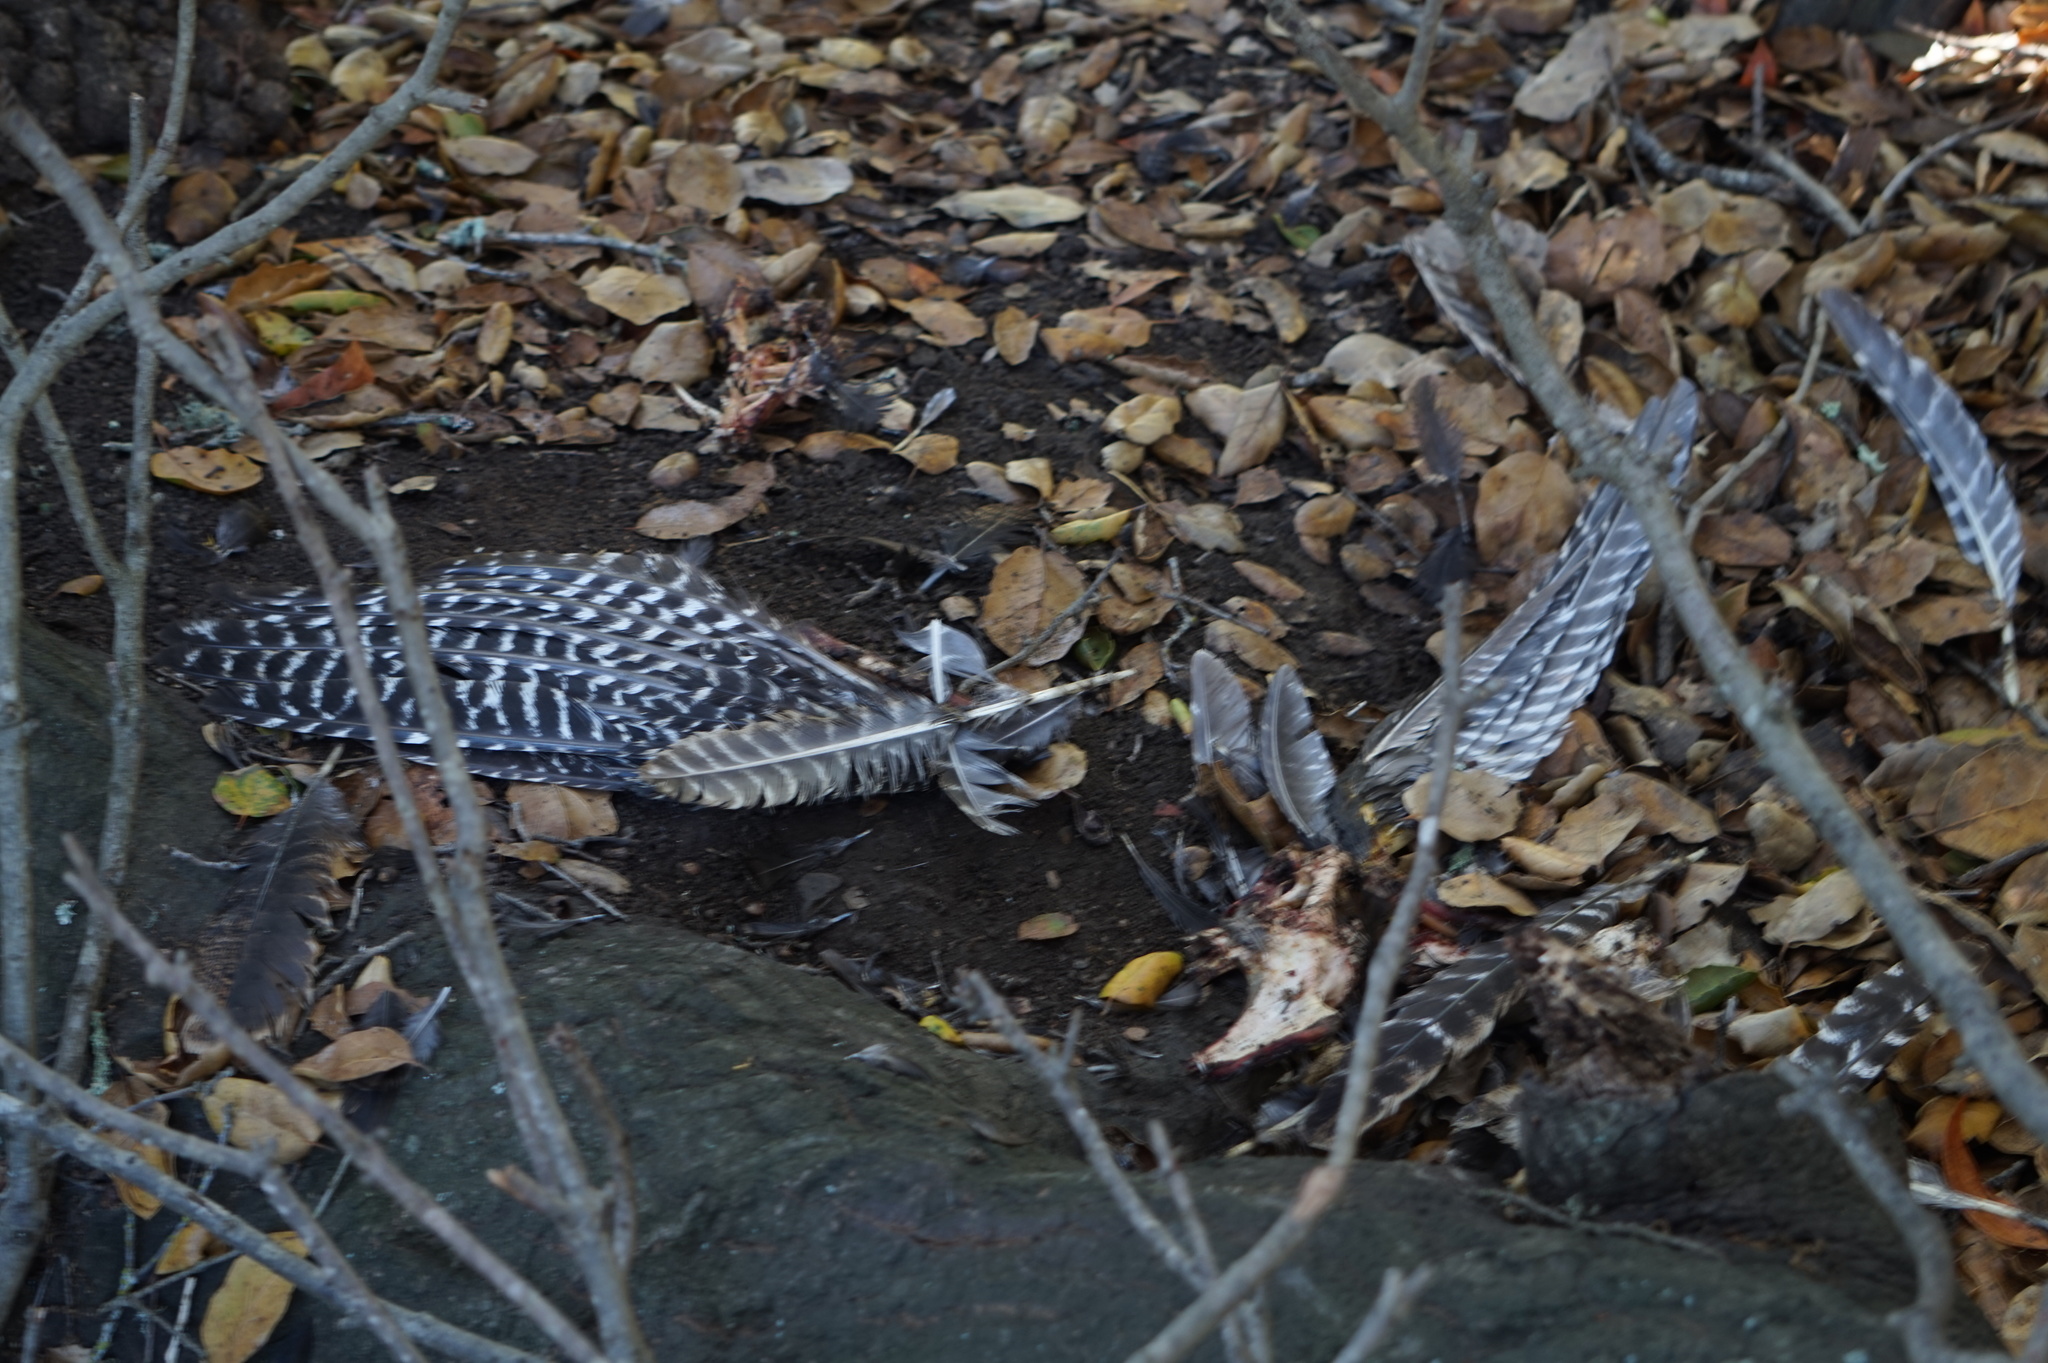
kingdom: Animalia
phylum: Chordata
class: Aves
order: Galliformes
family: Phasianidae
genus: Meleagris
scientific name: Meleagris gallopavo
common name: Wild turkey
